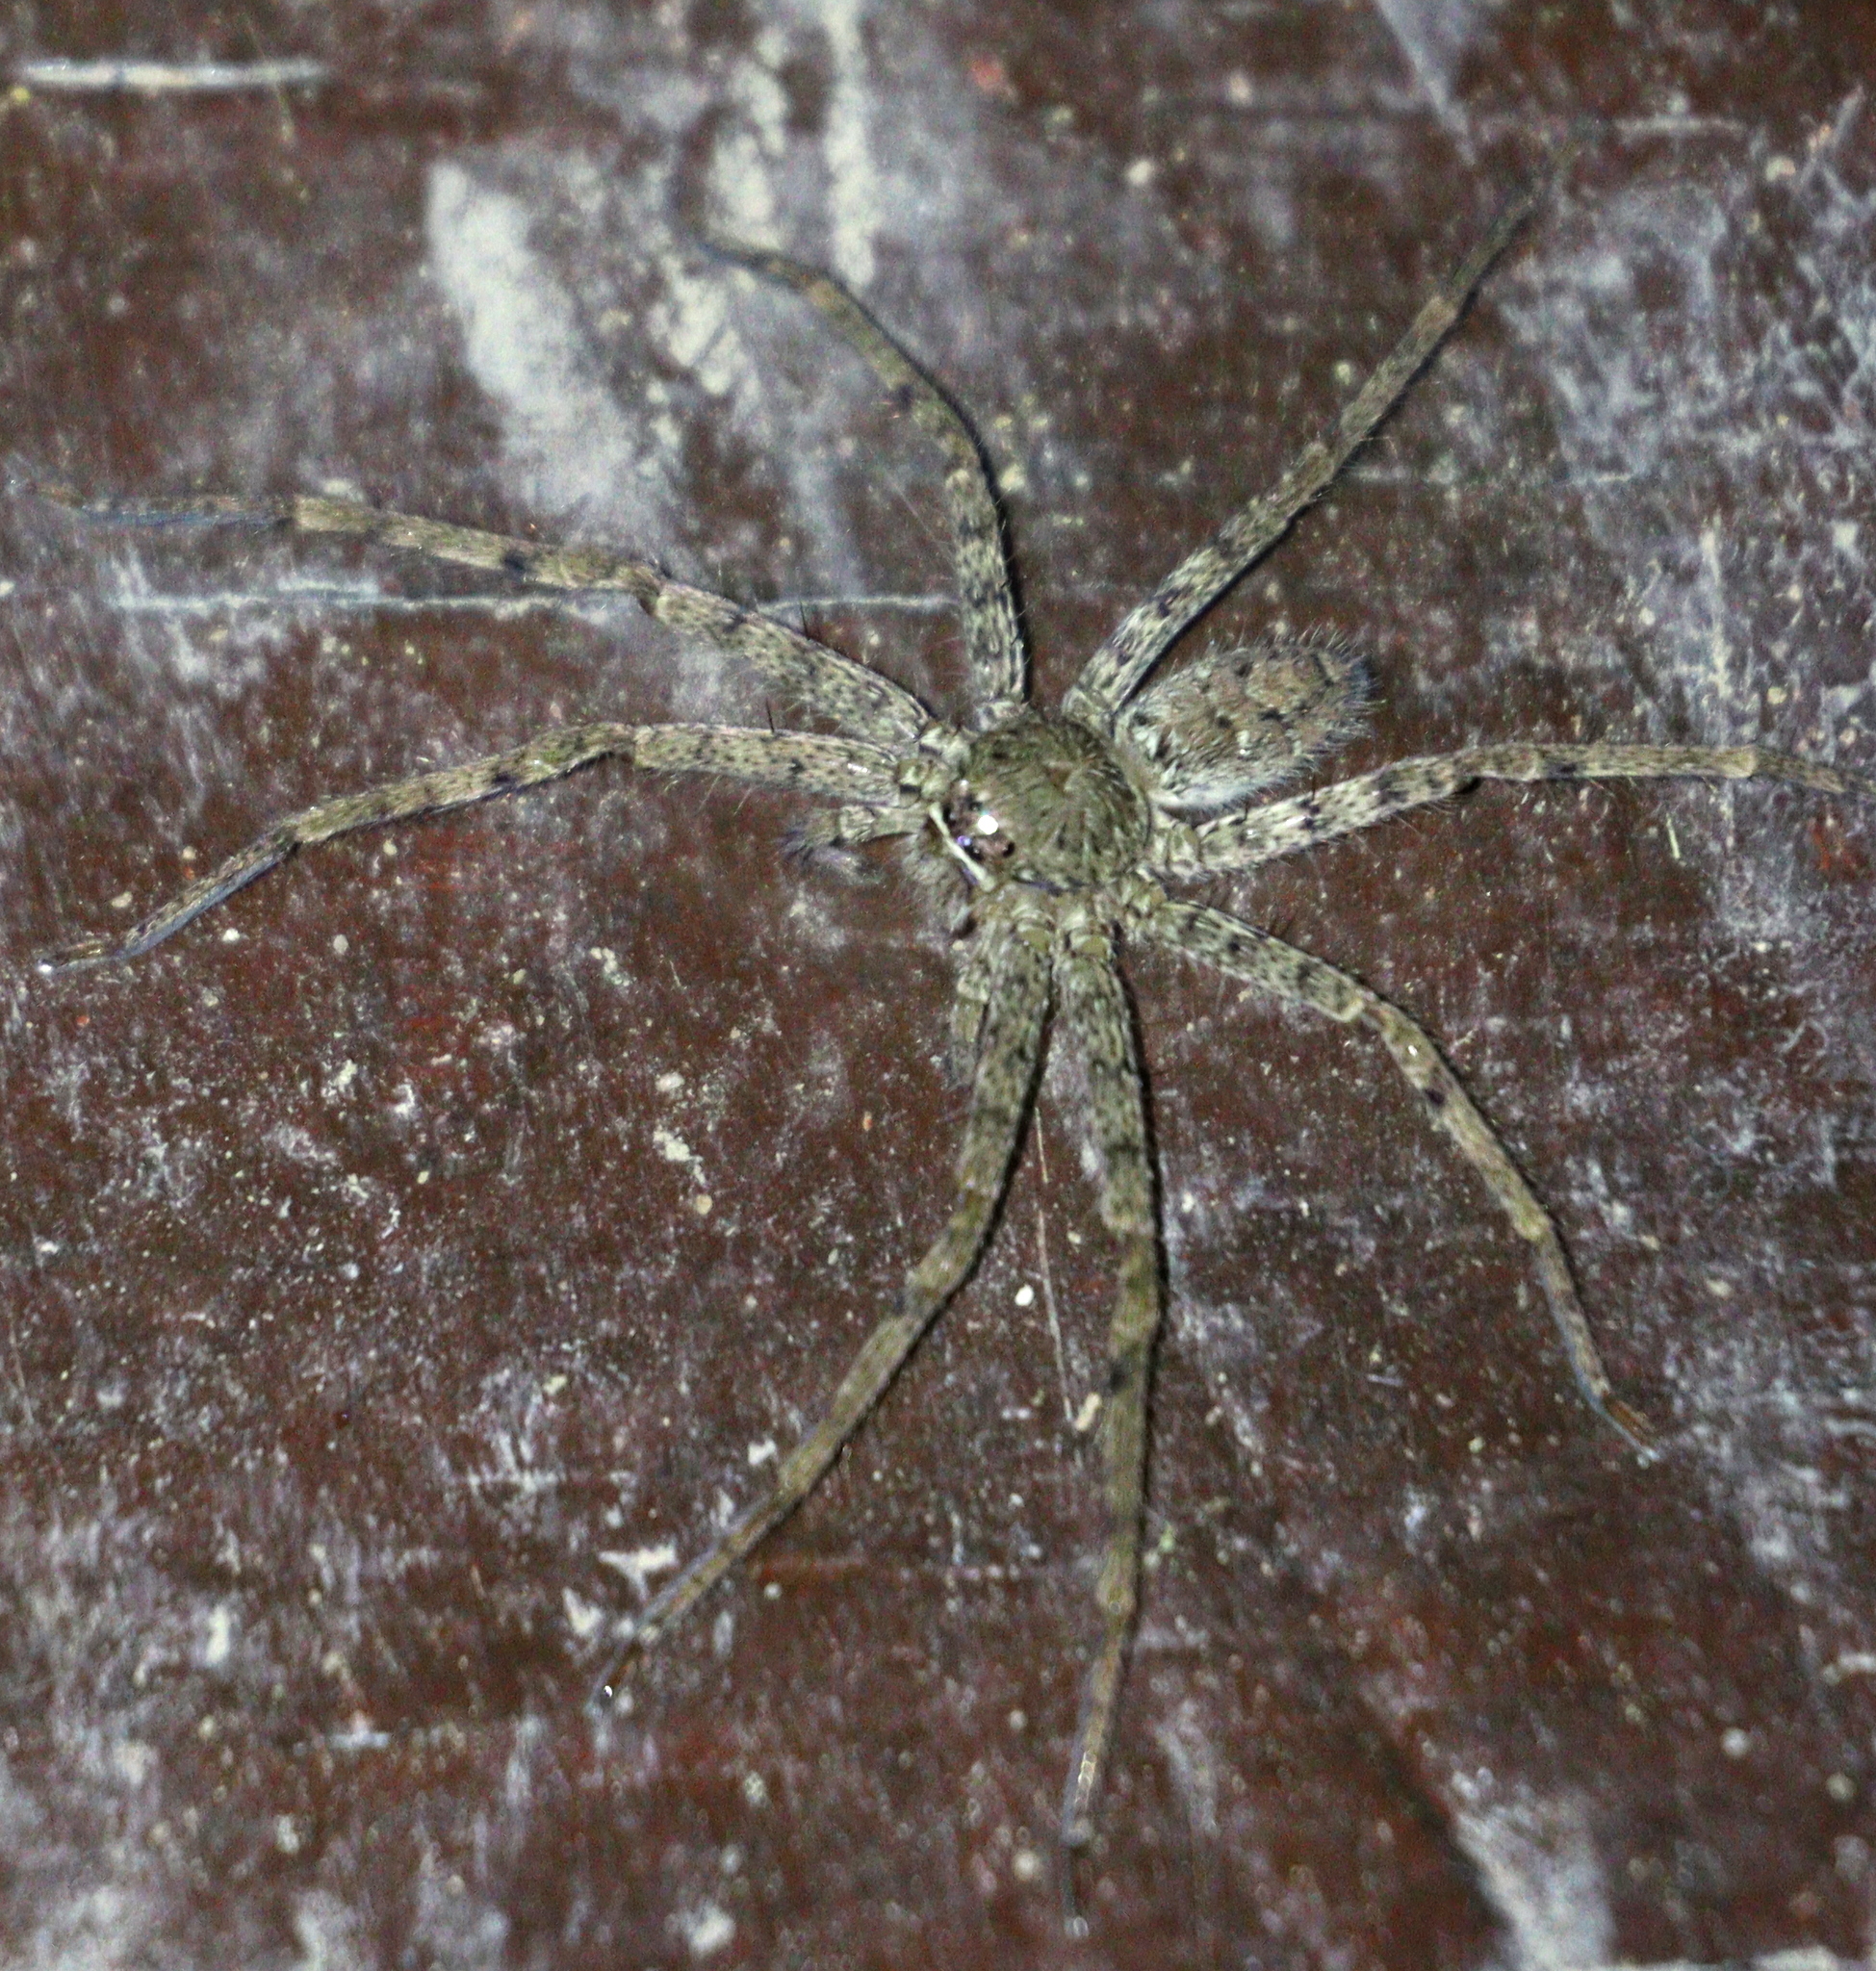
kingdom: Animalia
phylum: Arthropoda
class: Arachnida
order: Araneae
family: Sparassidae
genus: Heteropoda
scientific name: Heteropoda venatoria
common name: Huntsman spider
